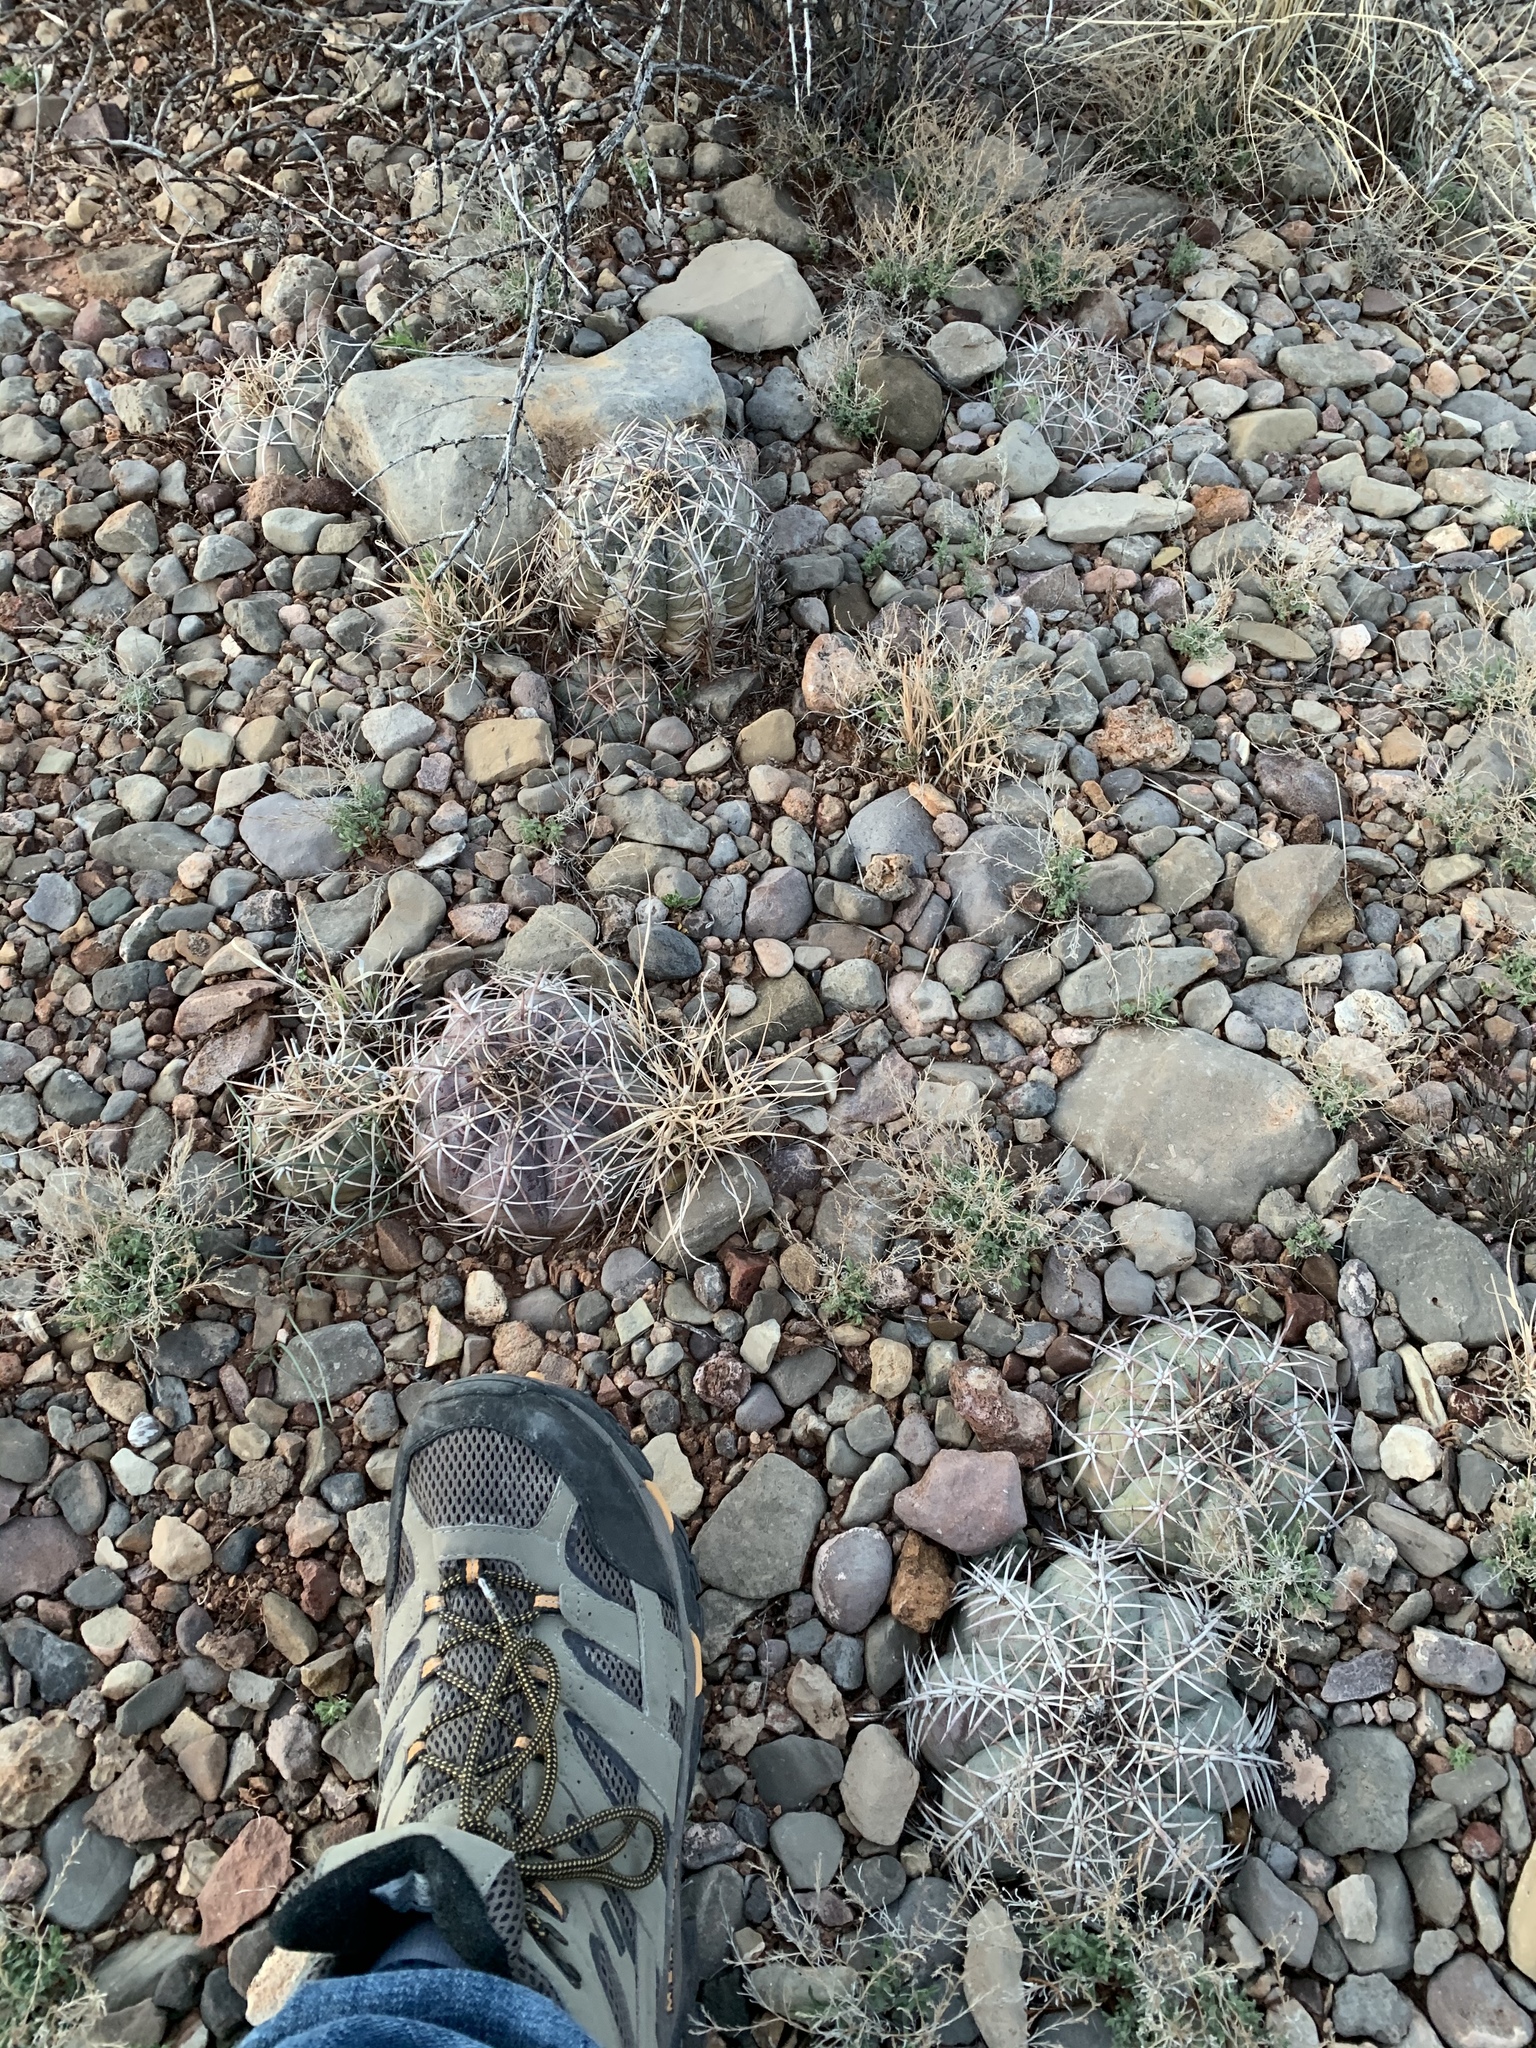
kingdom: Plantae
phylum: Tracheophyta
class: Magnoliopsida
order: Caryophyllales
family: Cactaceae
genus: Echinocactus
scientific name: Echinocactus horizonthalonius
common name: Devilshead
